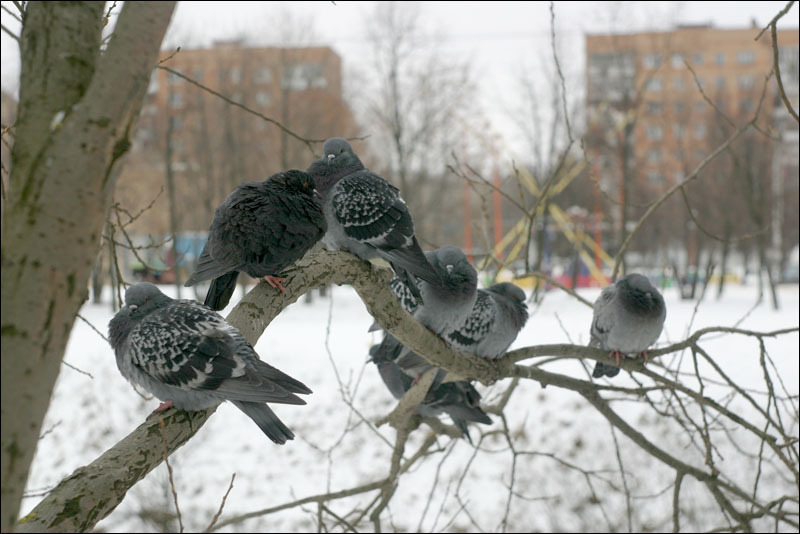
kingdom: Animalia
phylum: Chordata
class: Aves
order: Columbiformes
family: Columbidae
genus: Columba
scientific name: Columba livia
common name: Rock pigeon
